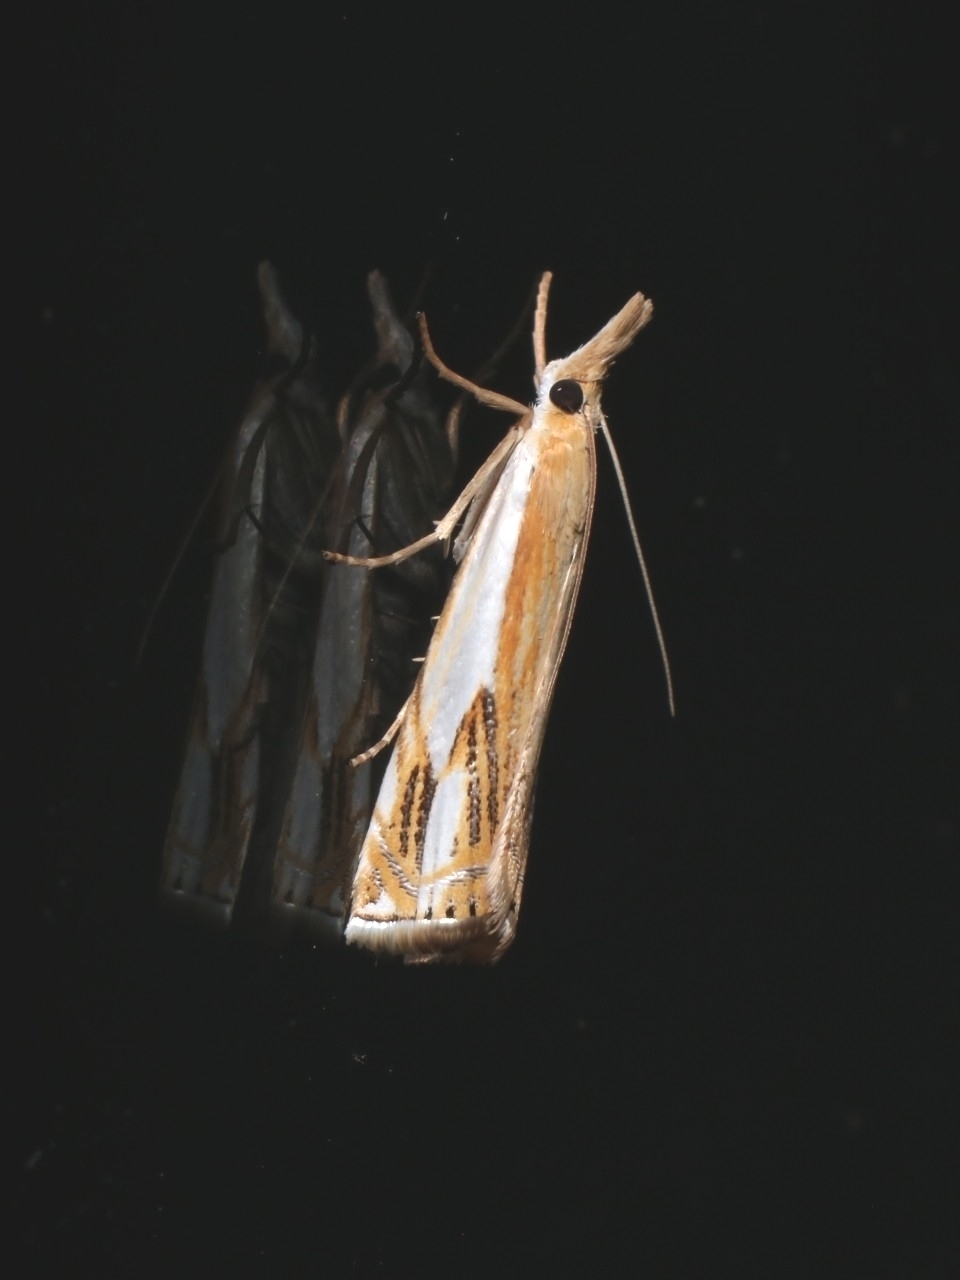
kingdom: Animalia
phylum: Arthropoda
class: Insecta
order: Lepidoptera
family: Crambidae
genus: Crambus
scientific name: Crambus agitatellus
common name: Double-banded grass-veneer
